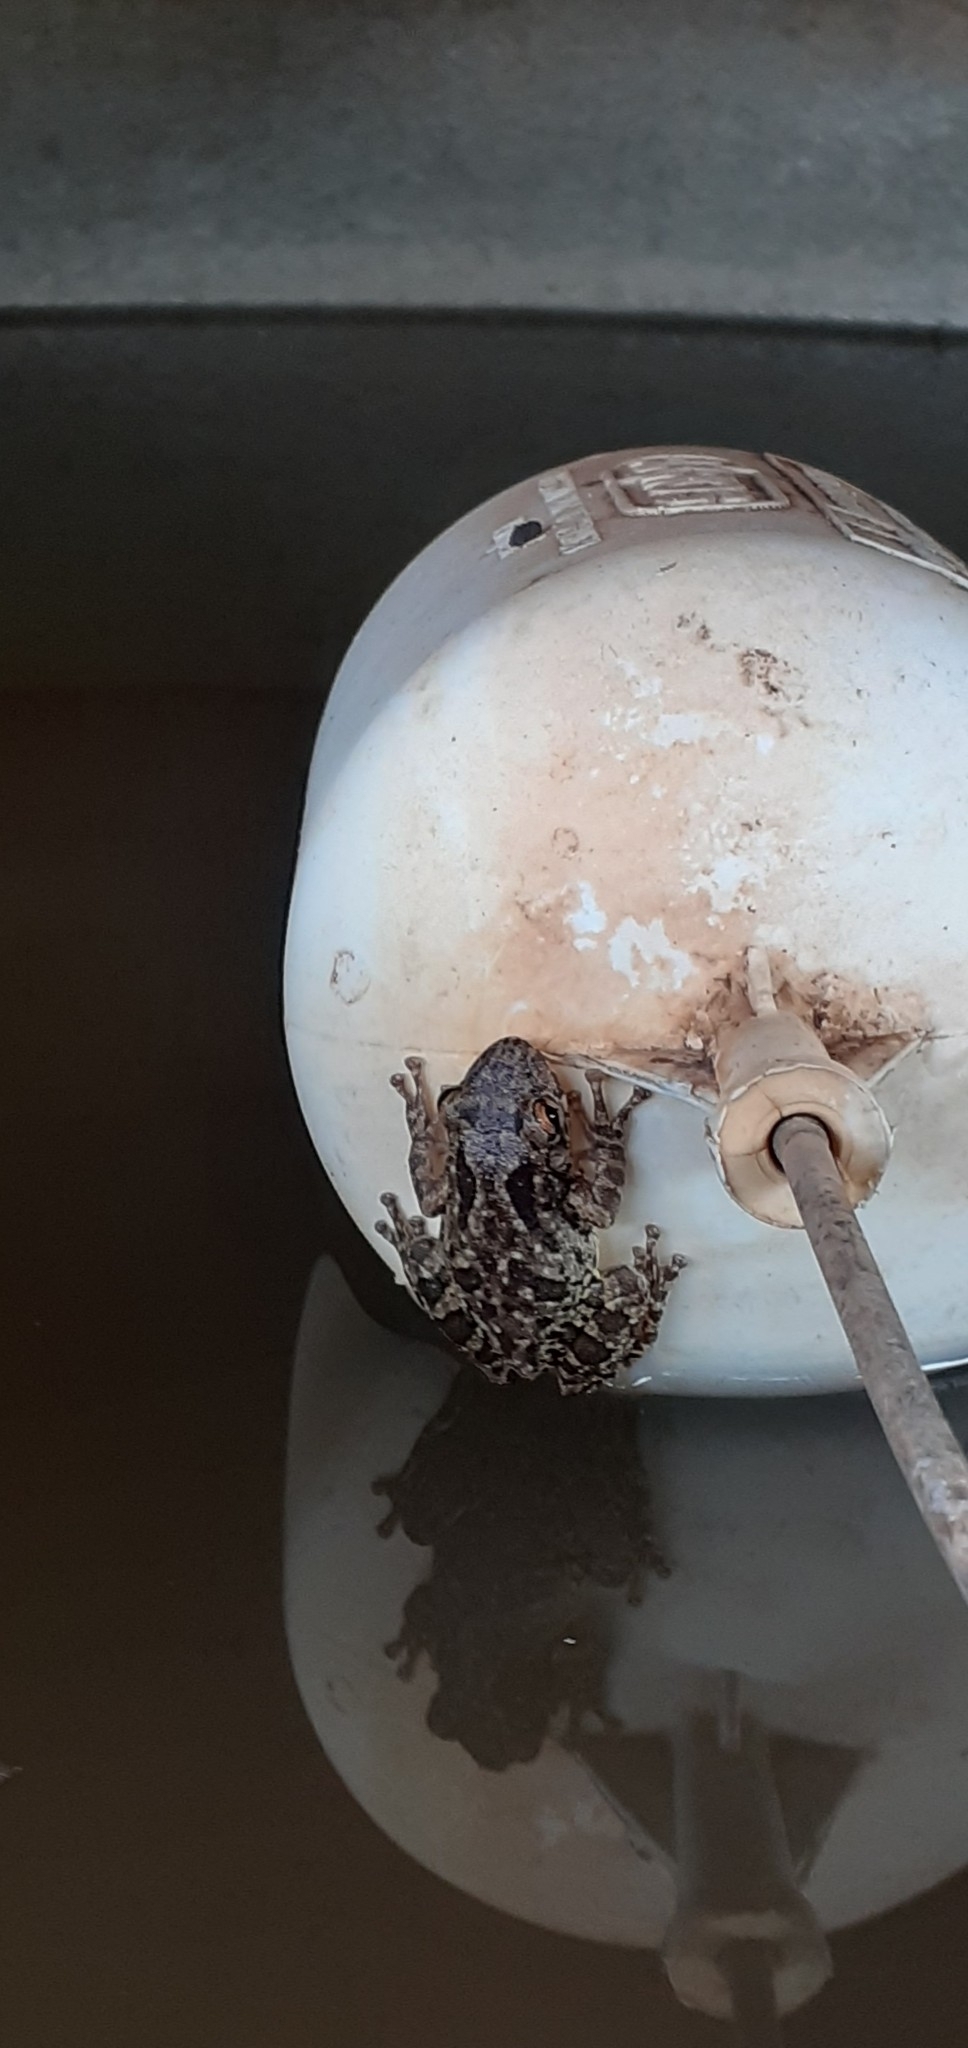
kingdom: Animalia
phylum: Chordata
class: Amphibia
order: Anura
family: Hylidae
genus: Scinax
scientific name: Scinax x-signatus
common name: Venezuela snouted treefrog
